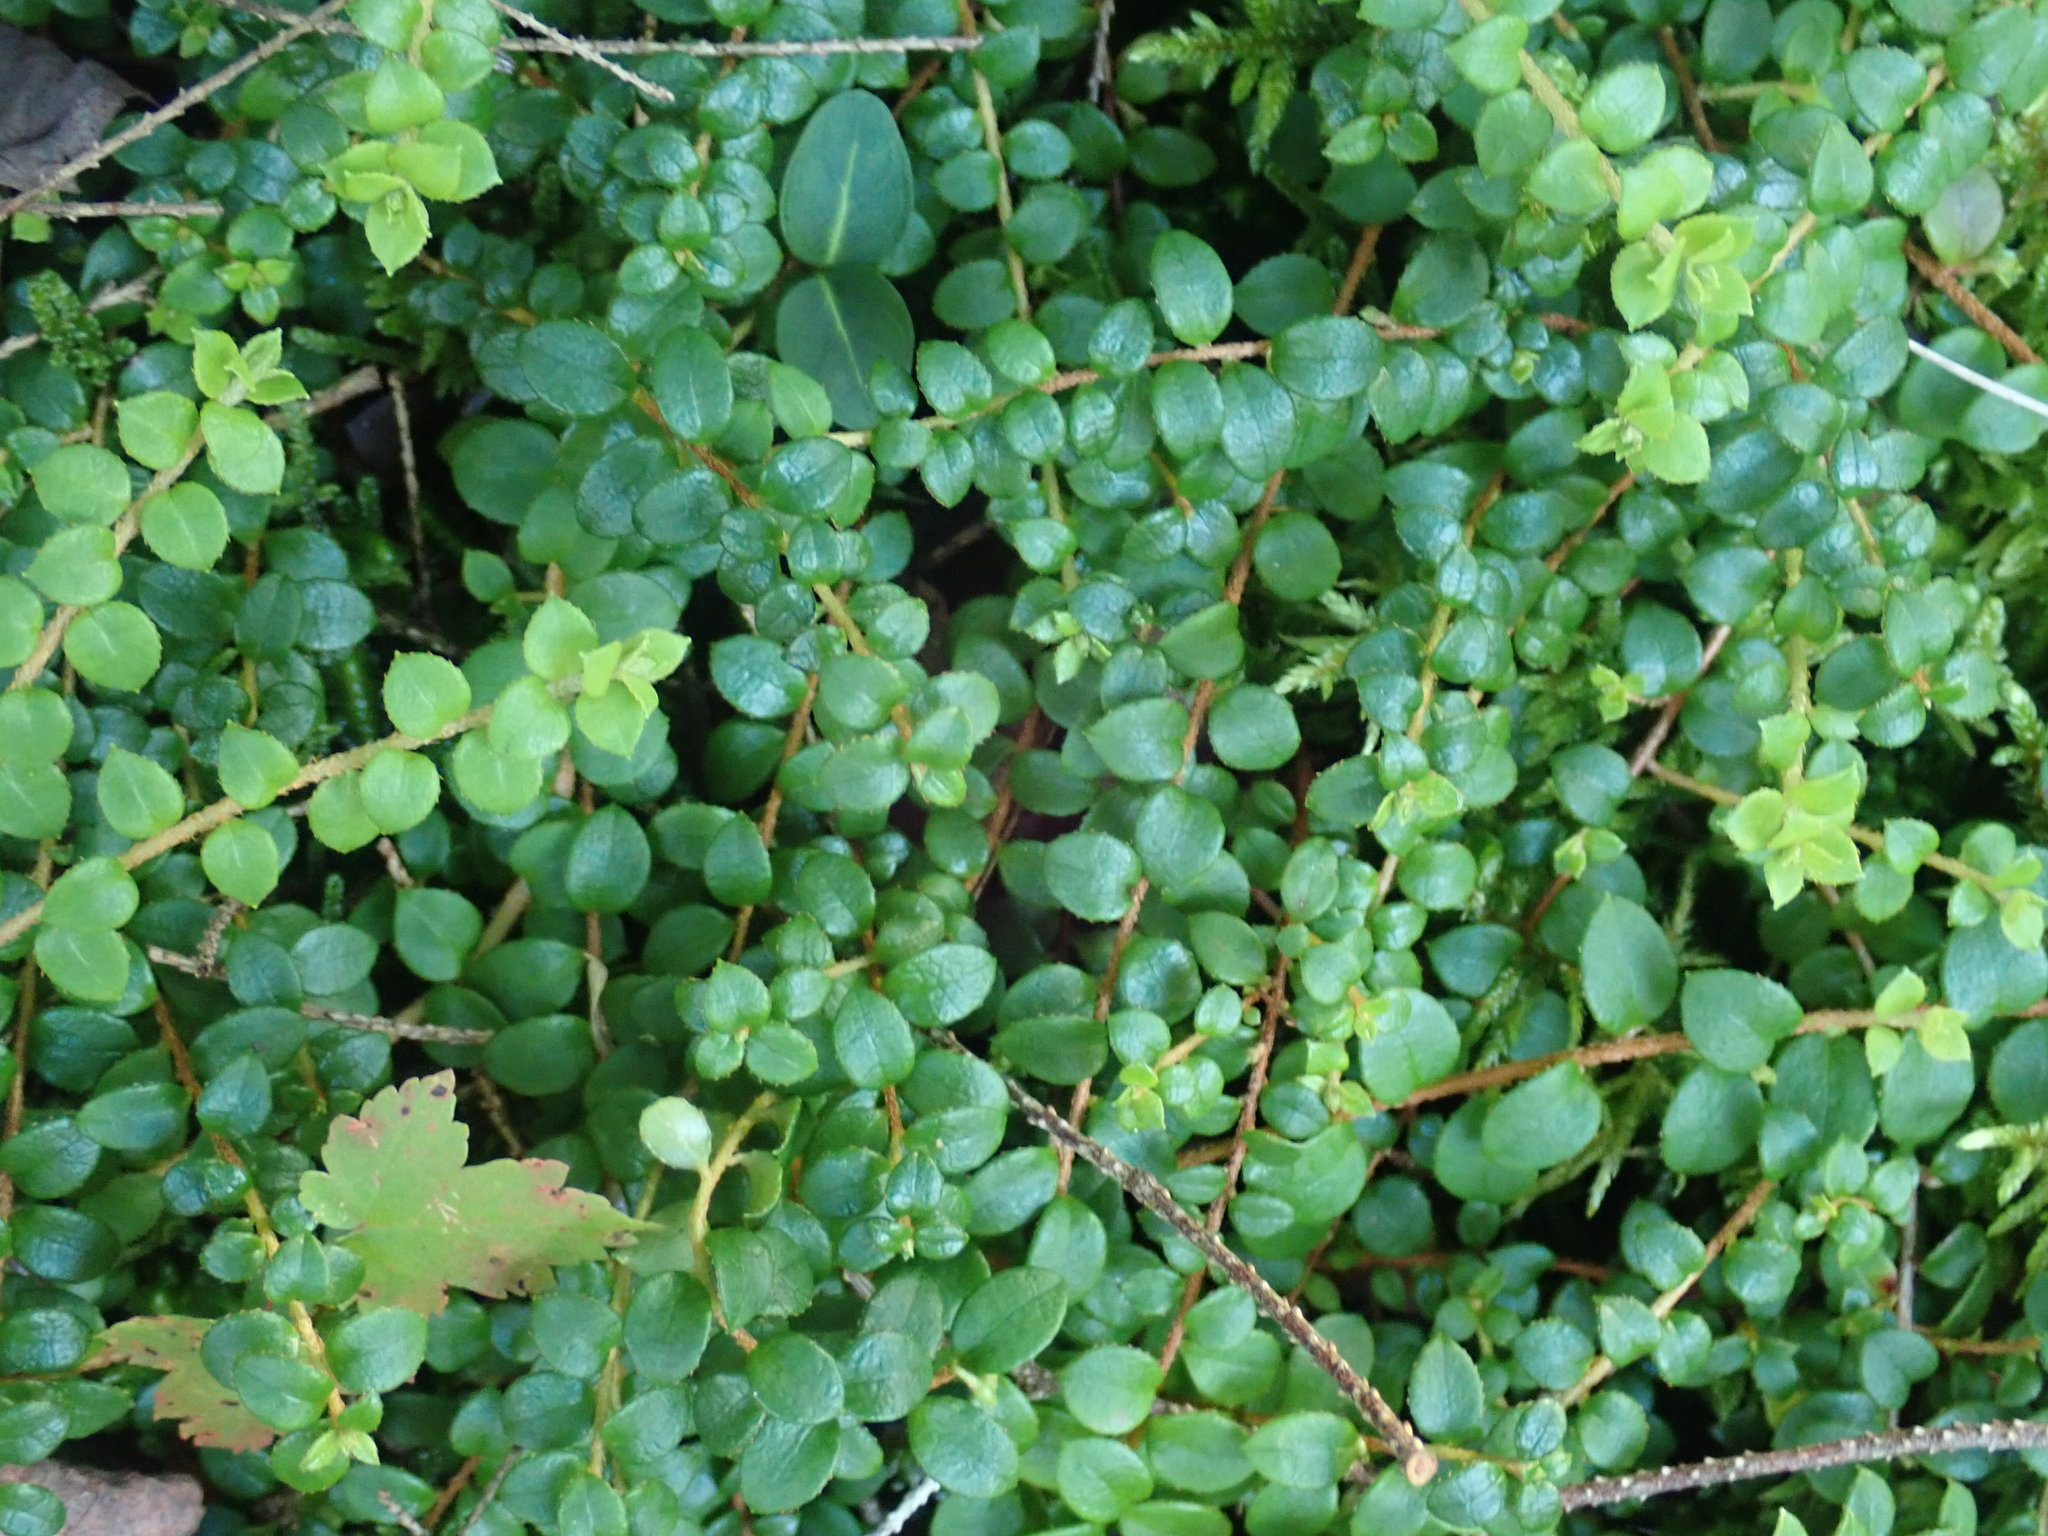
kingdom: Plantae
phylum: Tracheophyta
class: Magnoliopsida
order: Ericales
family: Ericaceae
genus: Gaultheria
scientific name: Gaultheria hispidula
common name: Cancer wintergreen
